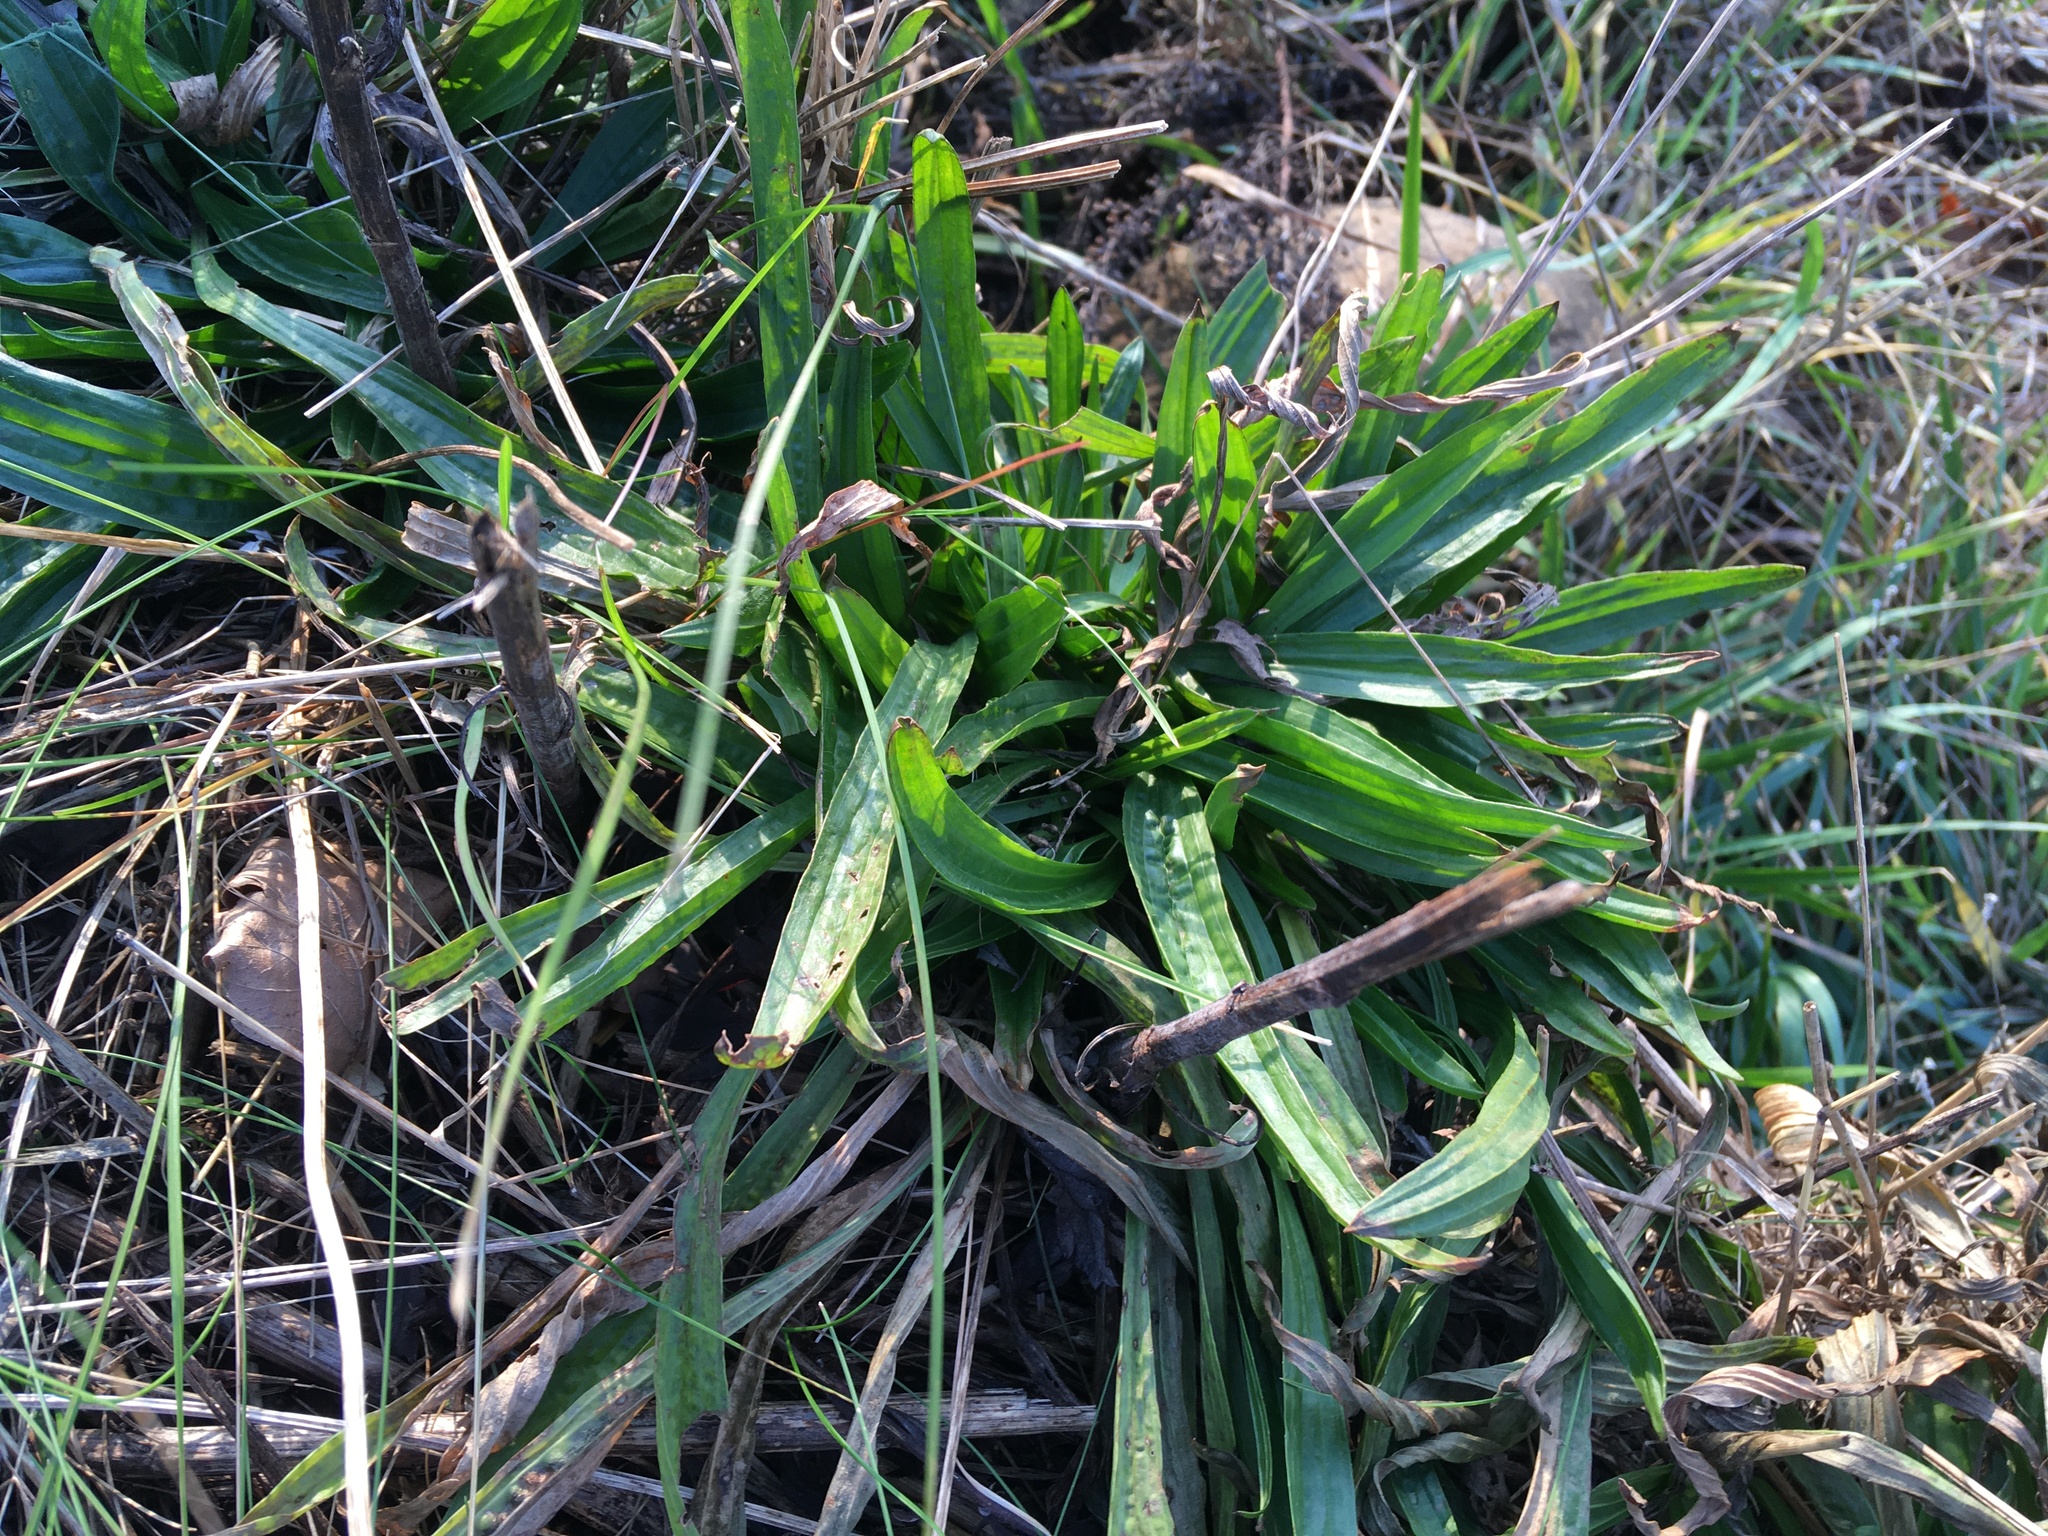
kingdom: Plantae
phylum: Tracheophyta
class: Magnoliopsida
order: Lamiales
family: Plantaginaceae
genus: Plantago
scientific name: Plantago lanceolata
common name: Ribwort plantain
